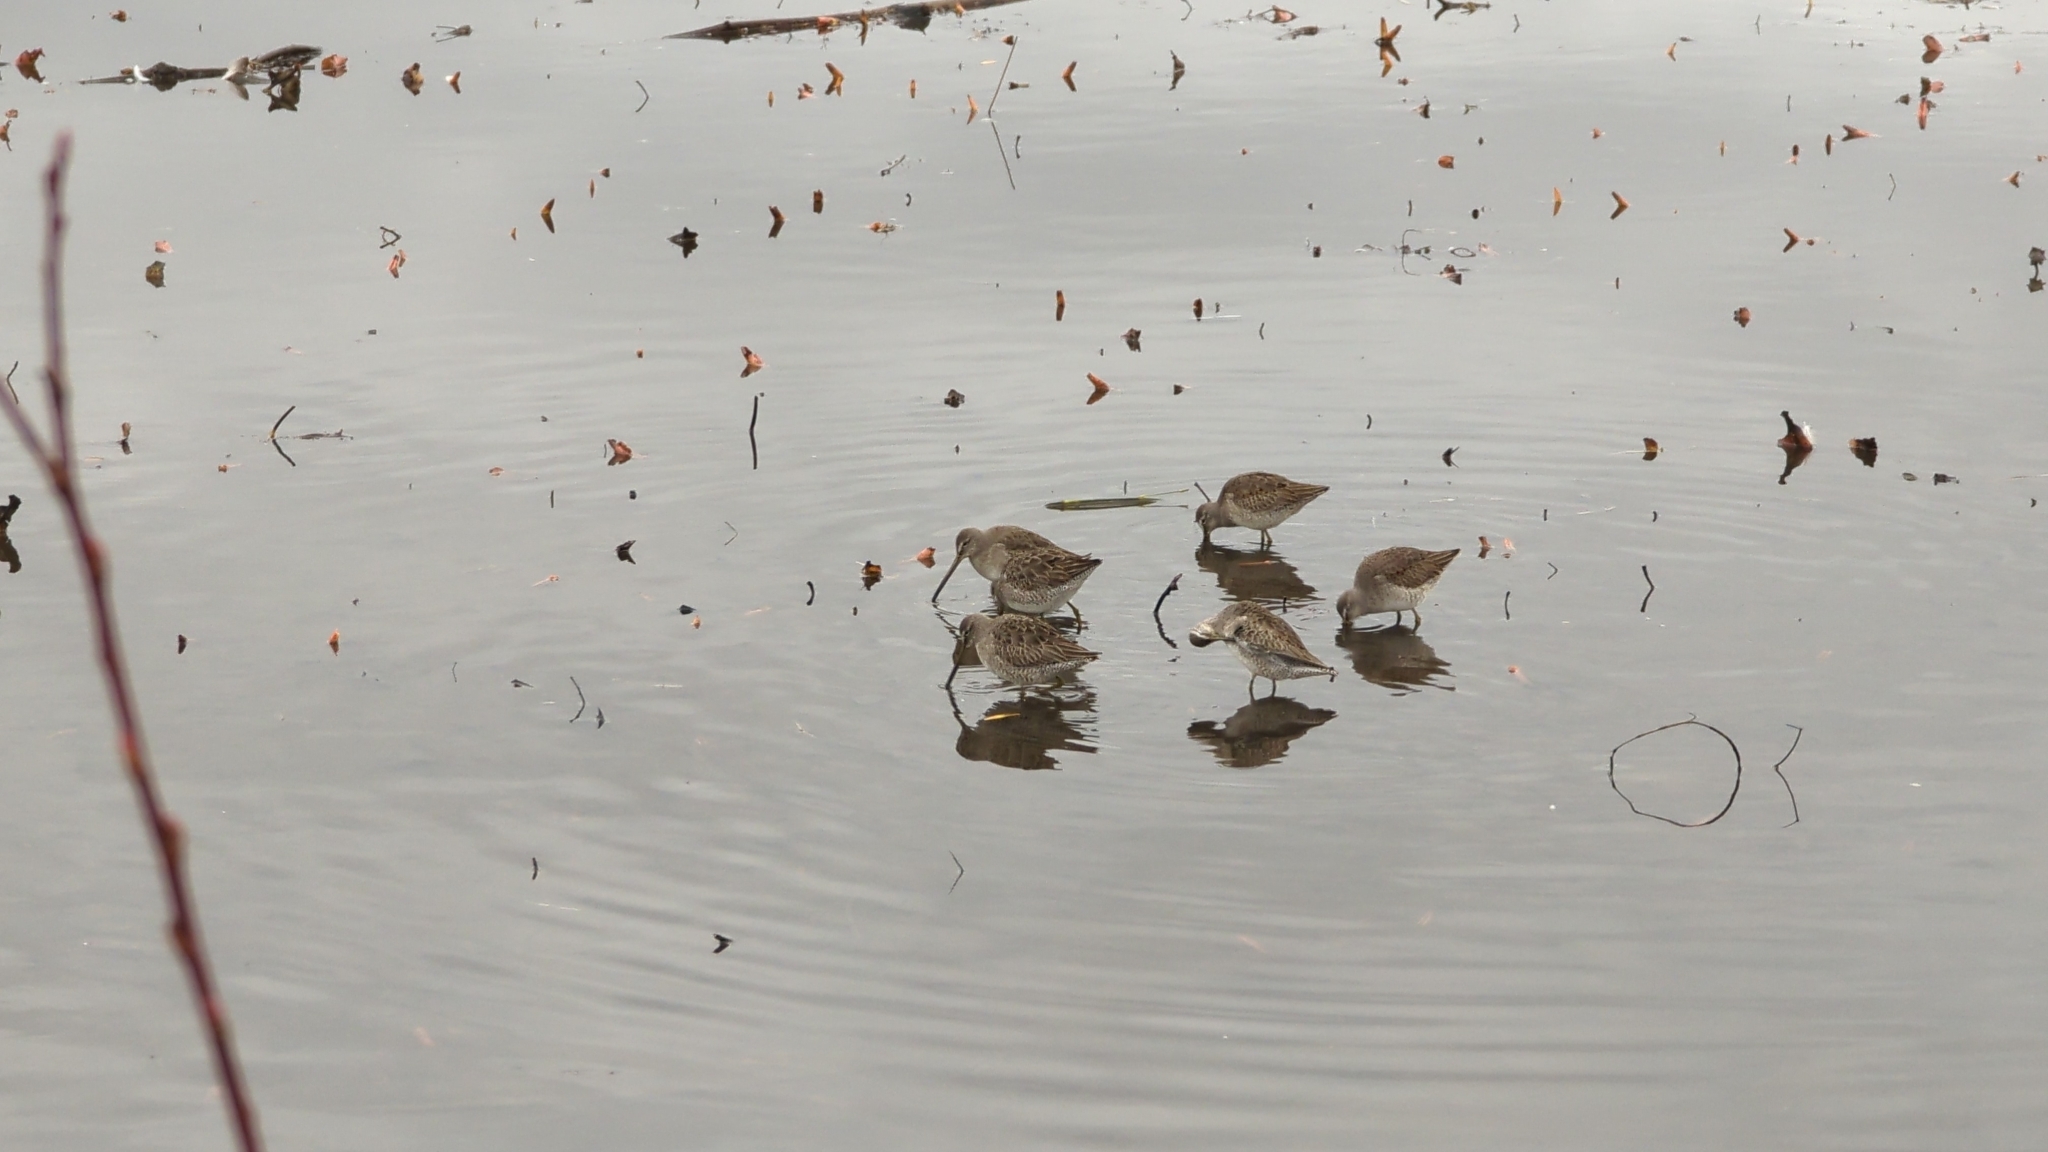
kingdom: Animalia
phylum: Chordata
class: Aves
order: Charadriiformes
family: Scolopacidae
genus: Limnodromus
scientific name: Limnodromus scolopaceus
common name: Long-billed dowitcher
